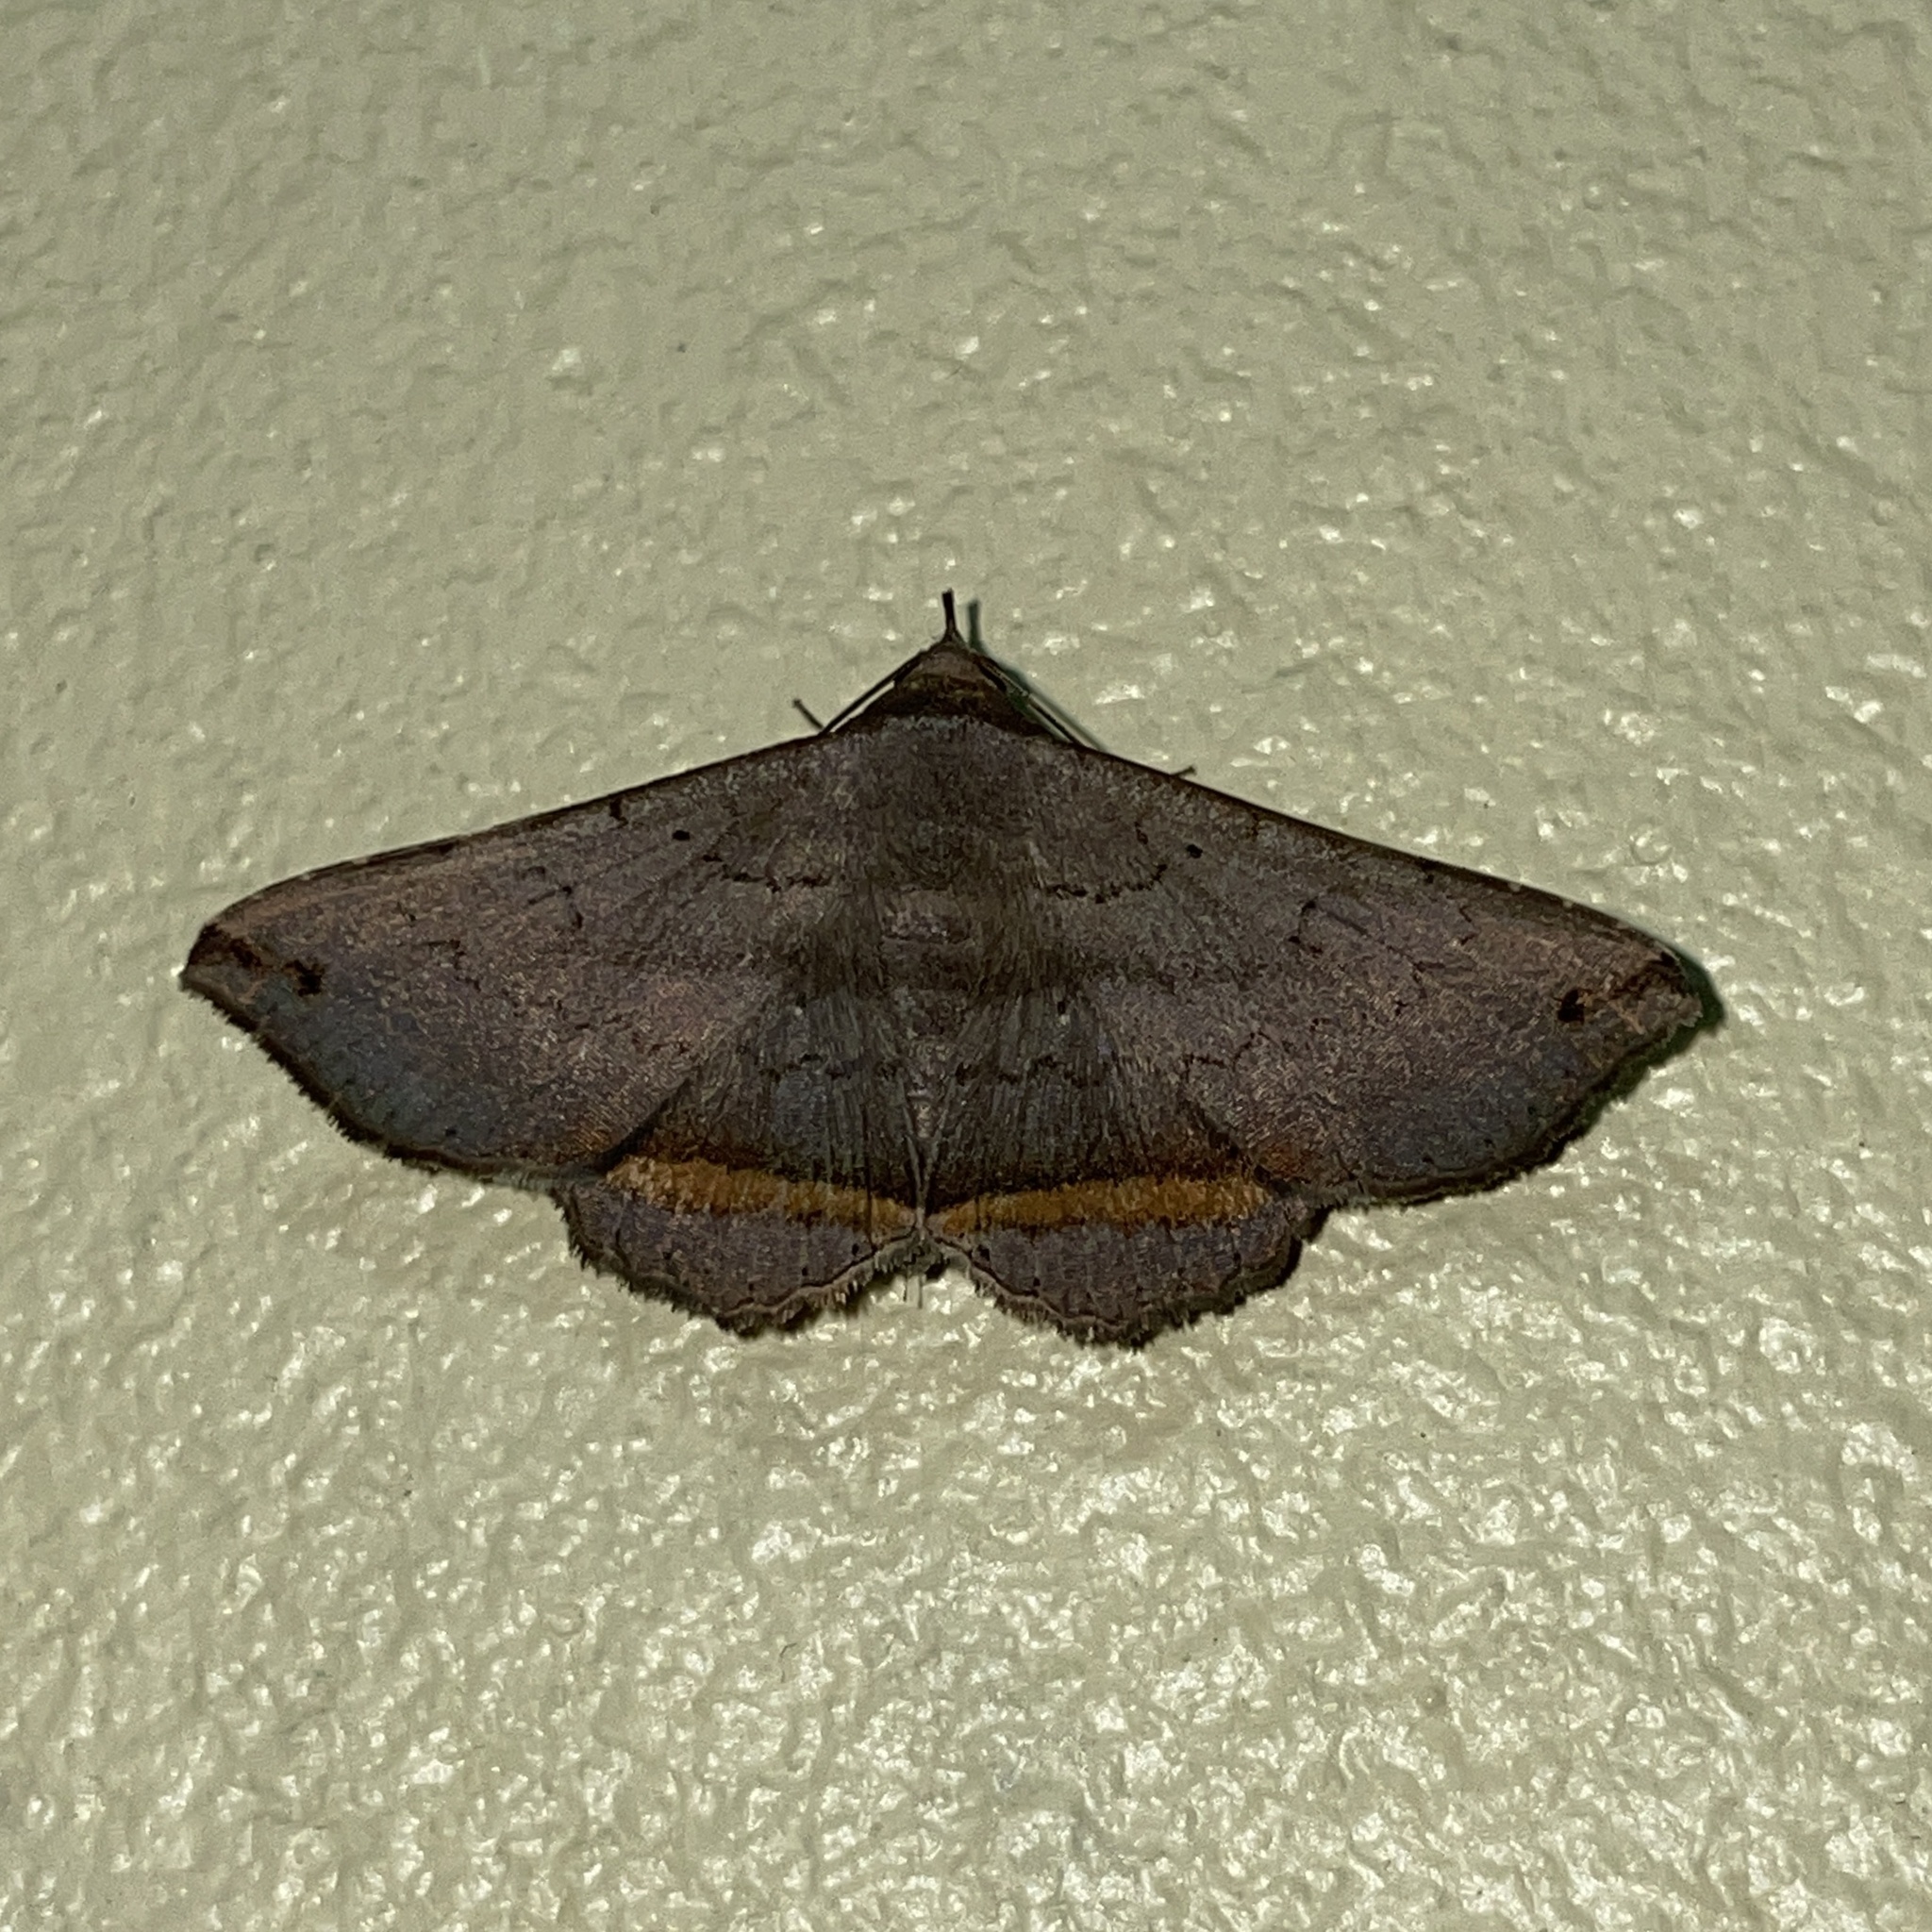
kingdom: Animalia
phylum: Arthropoda
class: Insecta
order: Lepidoptera
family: Erebidae
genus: Lesmone
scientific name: Lesmone formularis
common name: Lesmone moth
